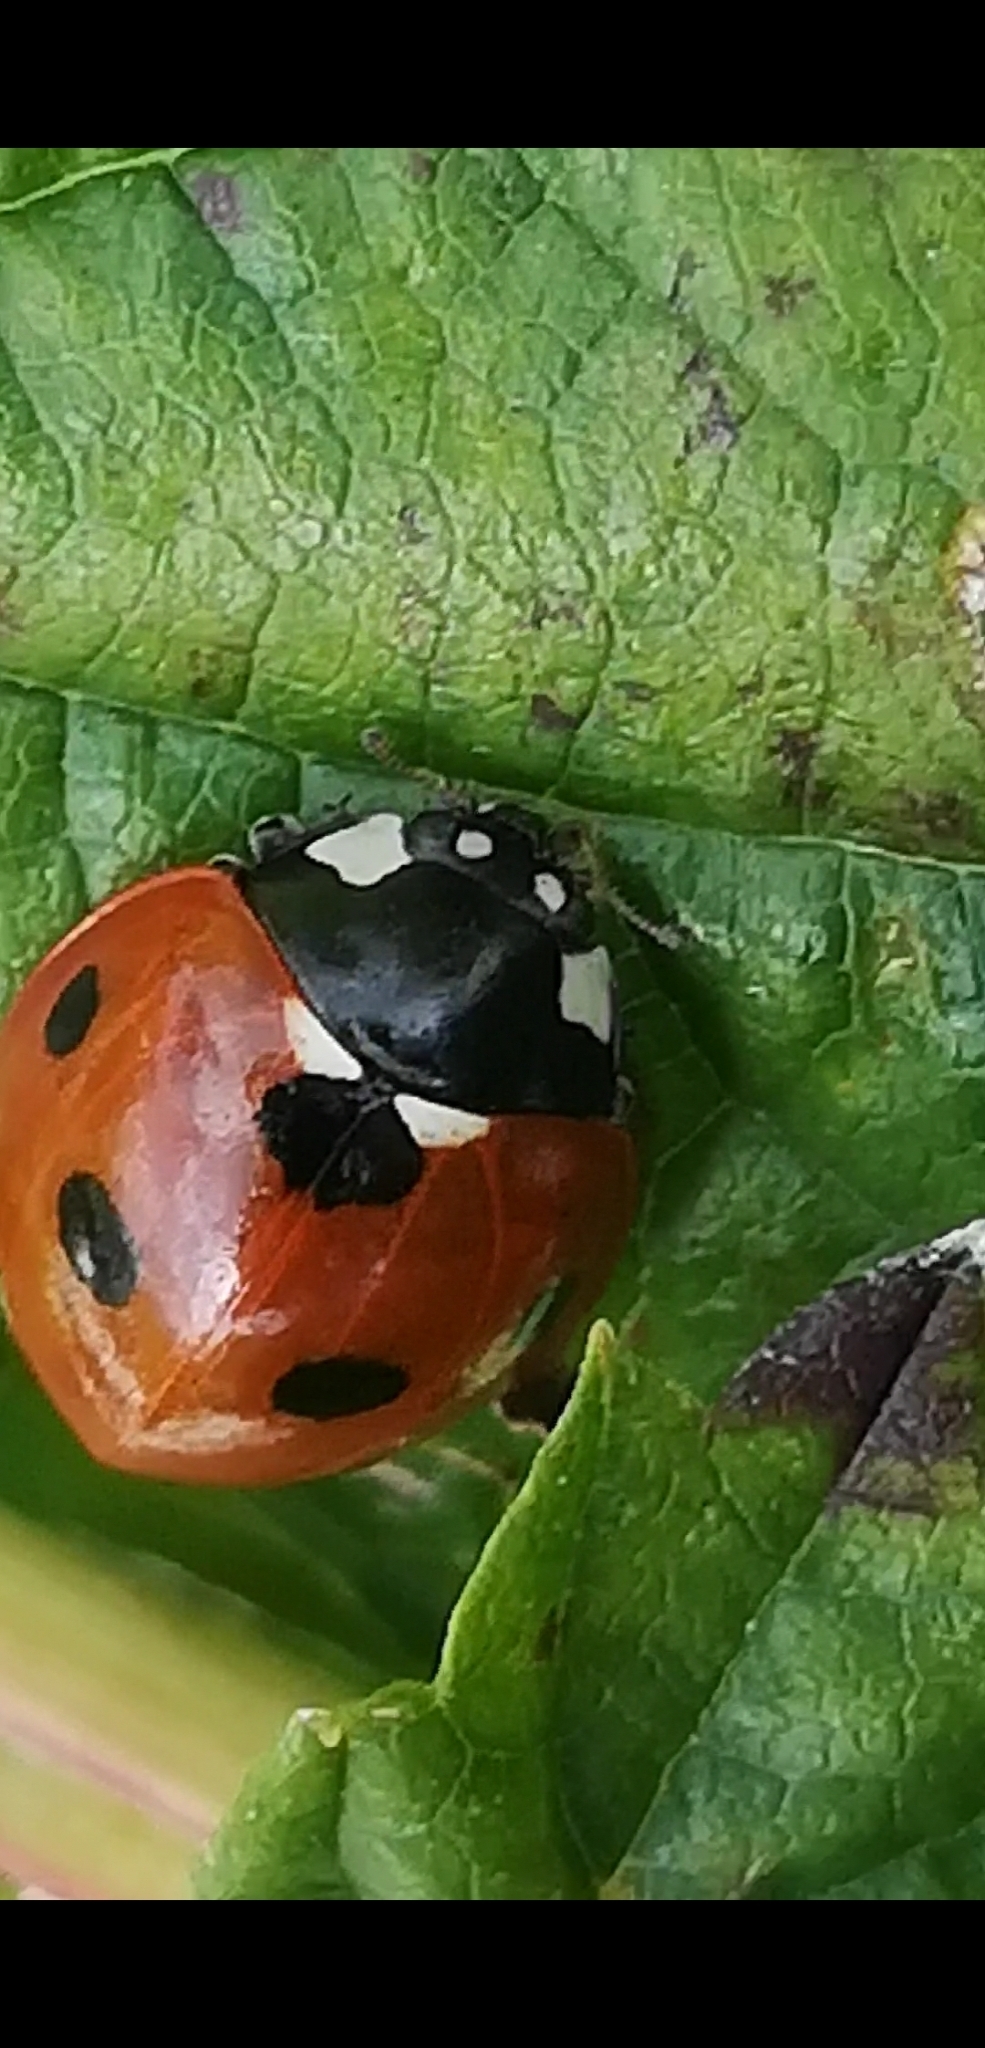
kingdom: Animalia
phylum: Arthropoda
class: Insecta
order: Coleoptera
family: Coccinellidae
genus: Coccinella
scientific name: Coccinella septempunctata
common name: Sevenspotted lady beetle
